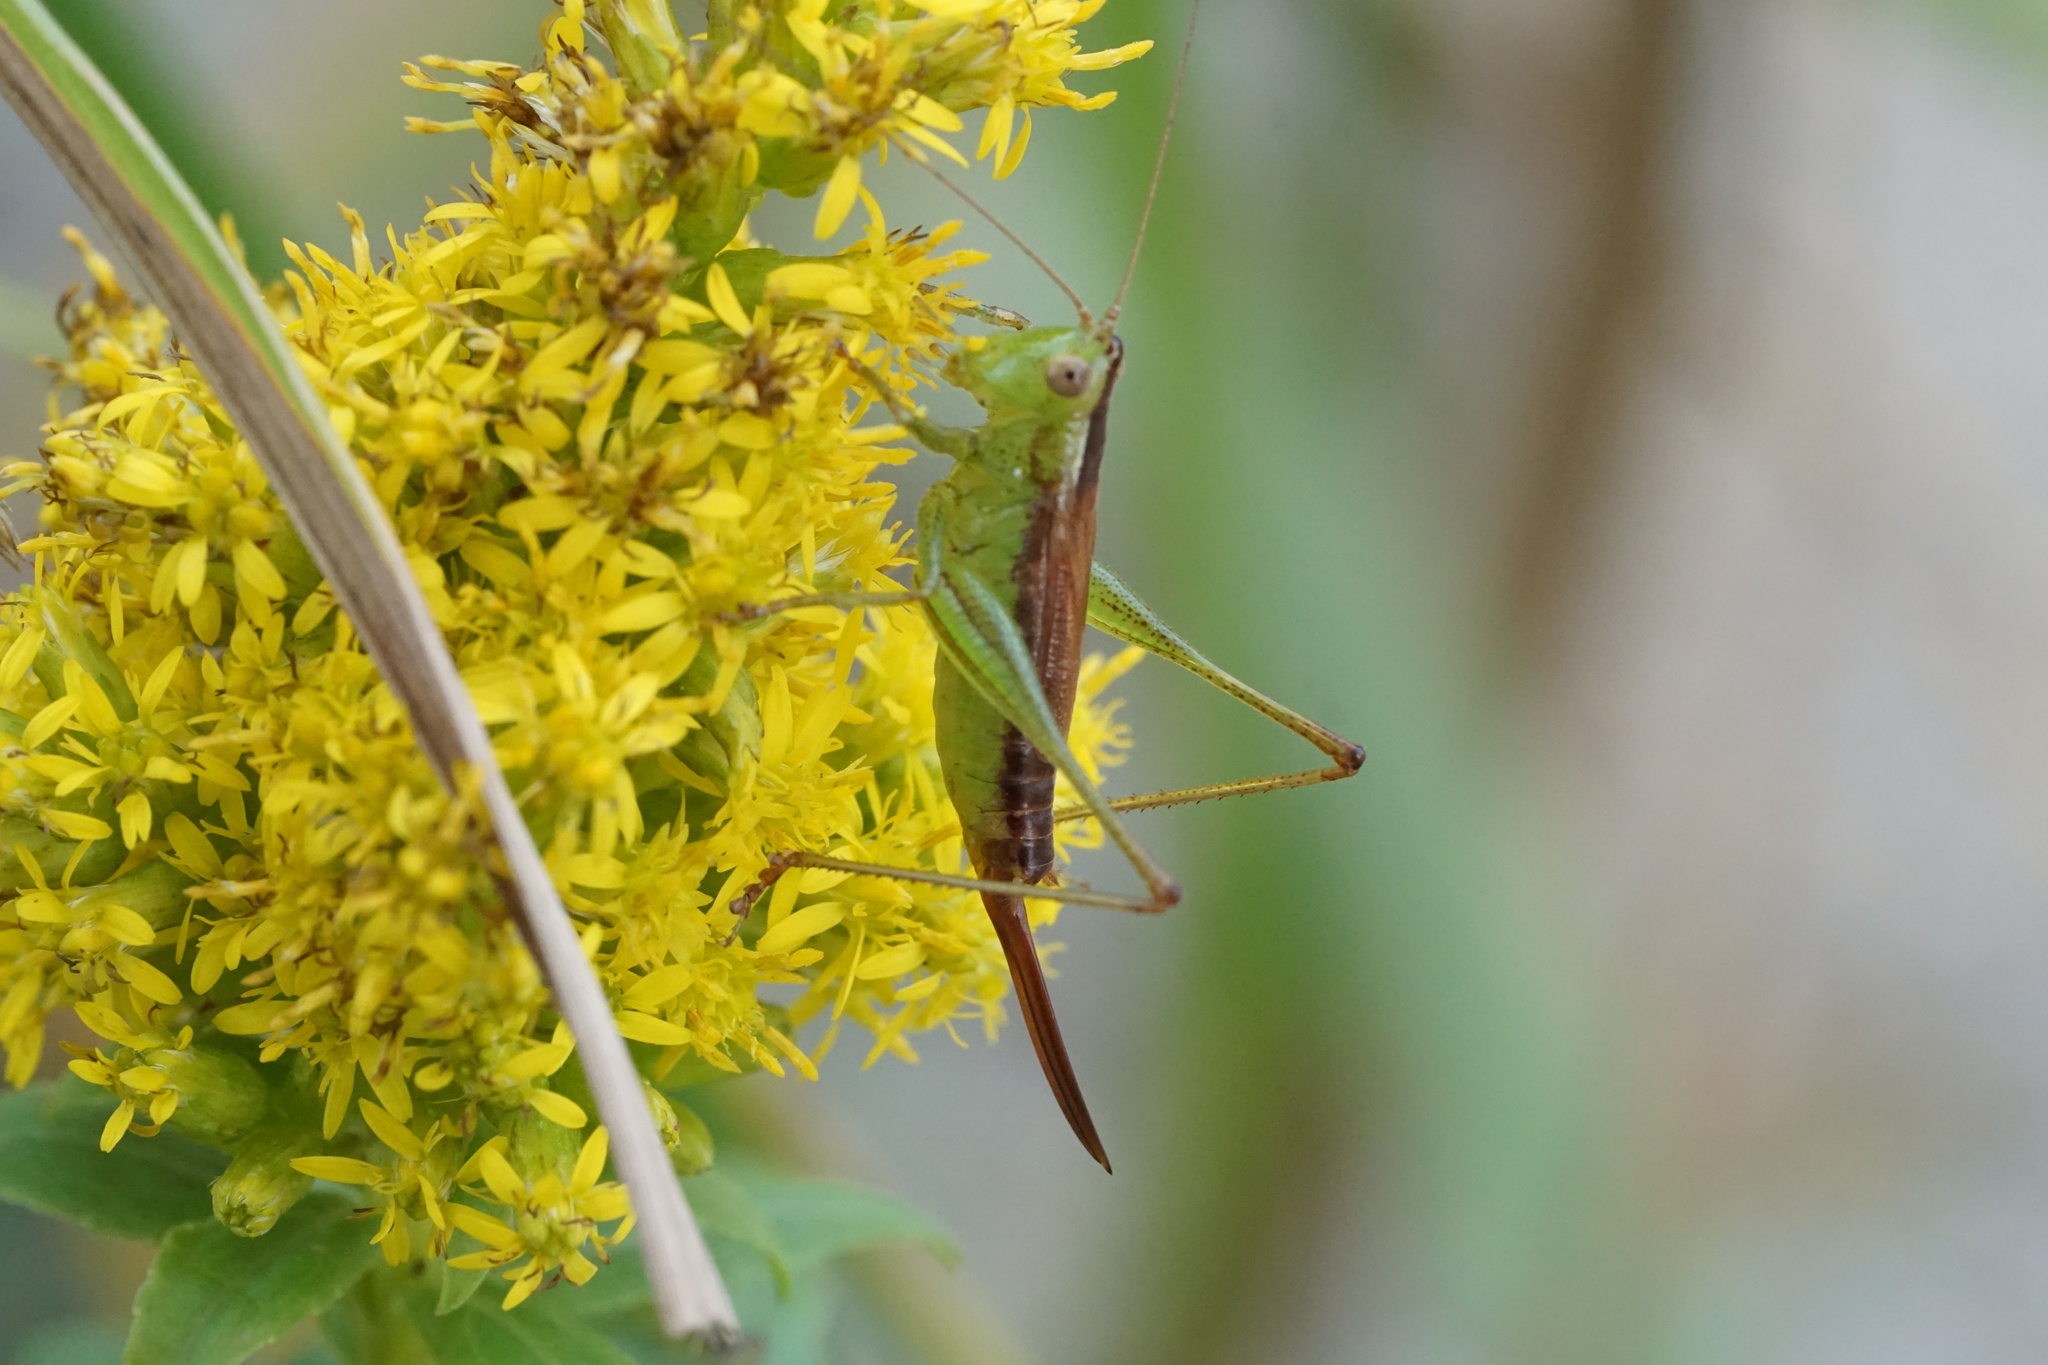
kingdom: Animalia
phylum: Arthropoda
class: Insecta
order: Orthoptera
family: Tettigoniidae
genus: Conocephalus
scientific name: Conocephalus brevipennis
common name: Short-winged meadow katydid
